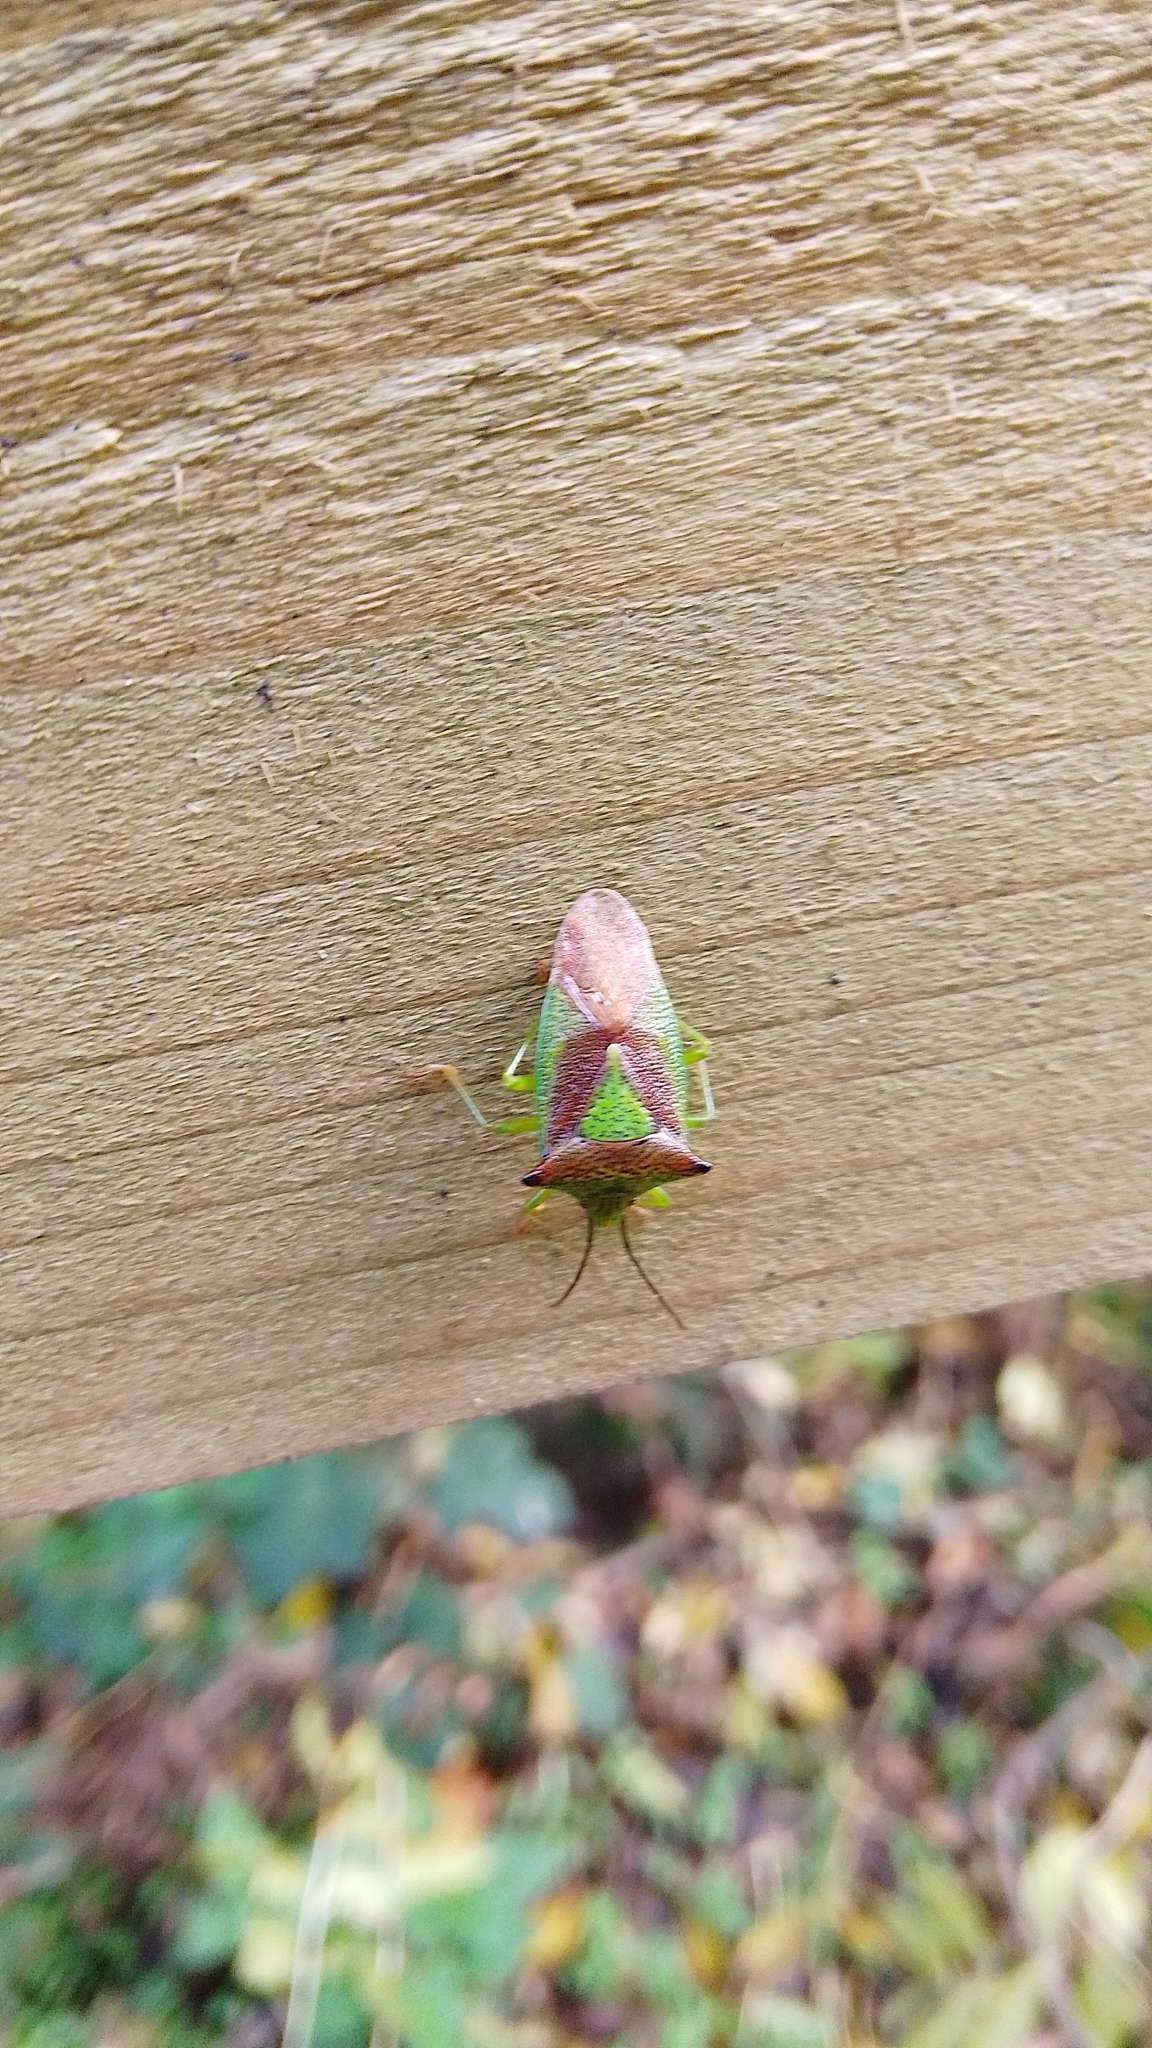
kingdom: Animalia
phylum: Arthropoda
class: Insecta
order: Hemiptera
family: Acanthosomatidae
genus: Acanthosoma
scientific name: Acanthosoma haemorrhoidale
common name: Hawthorn shieldbug
